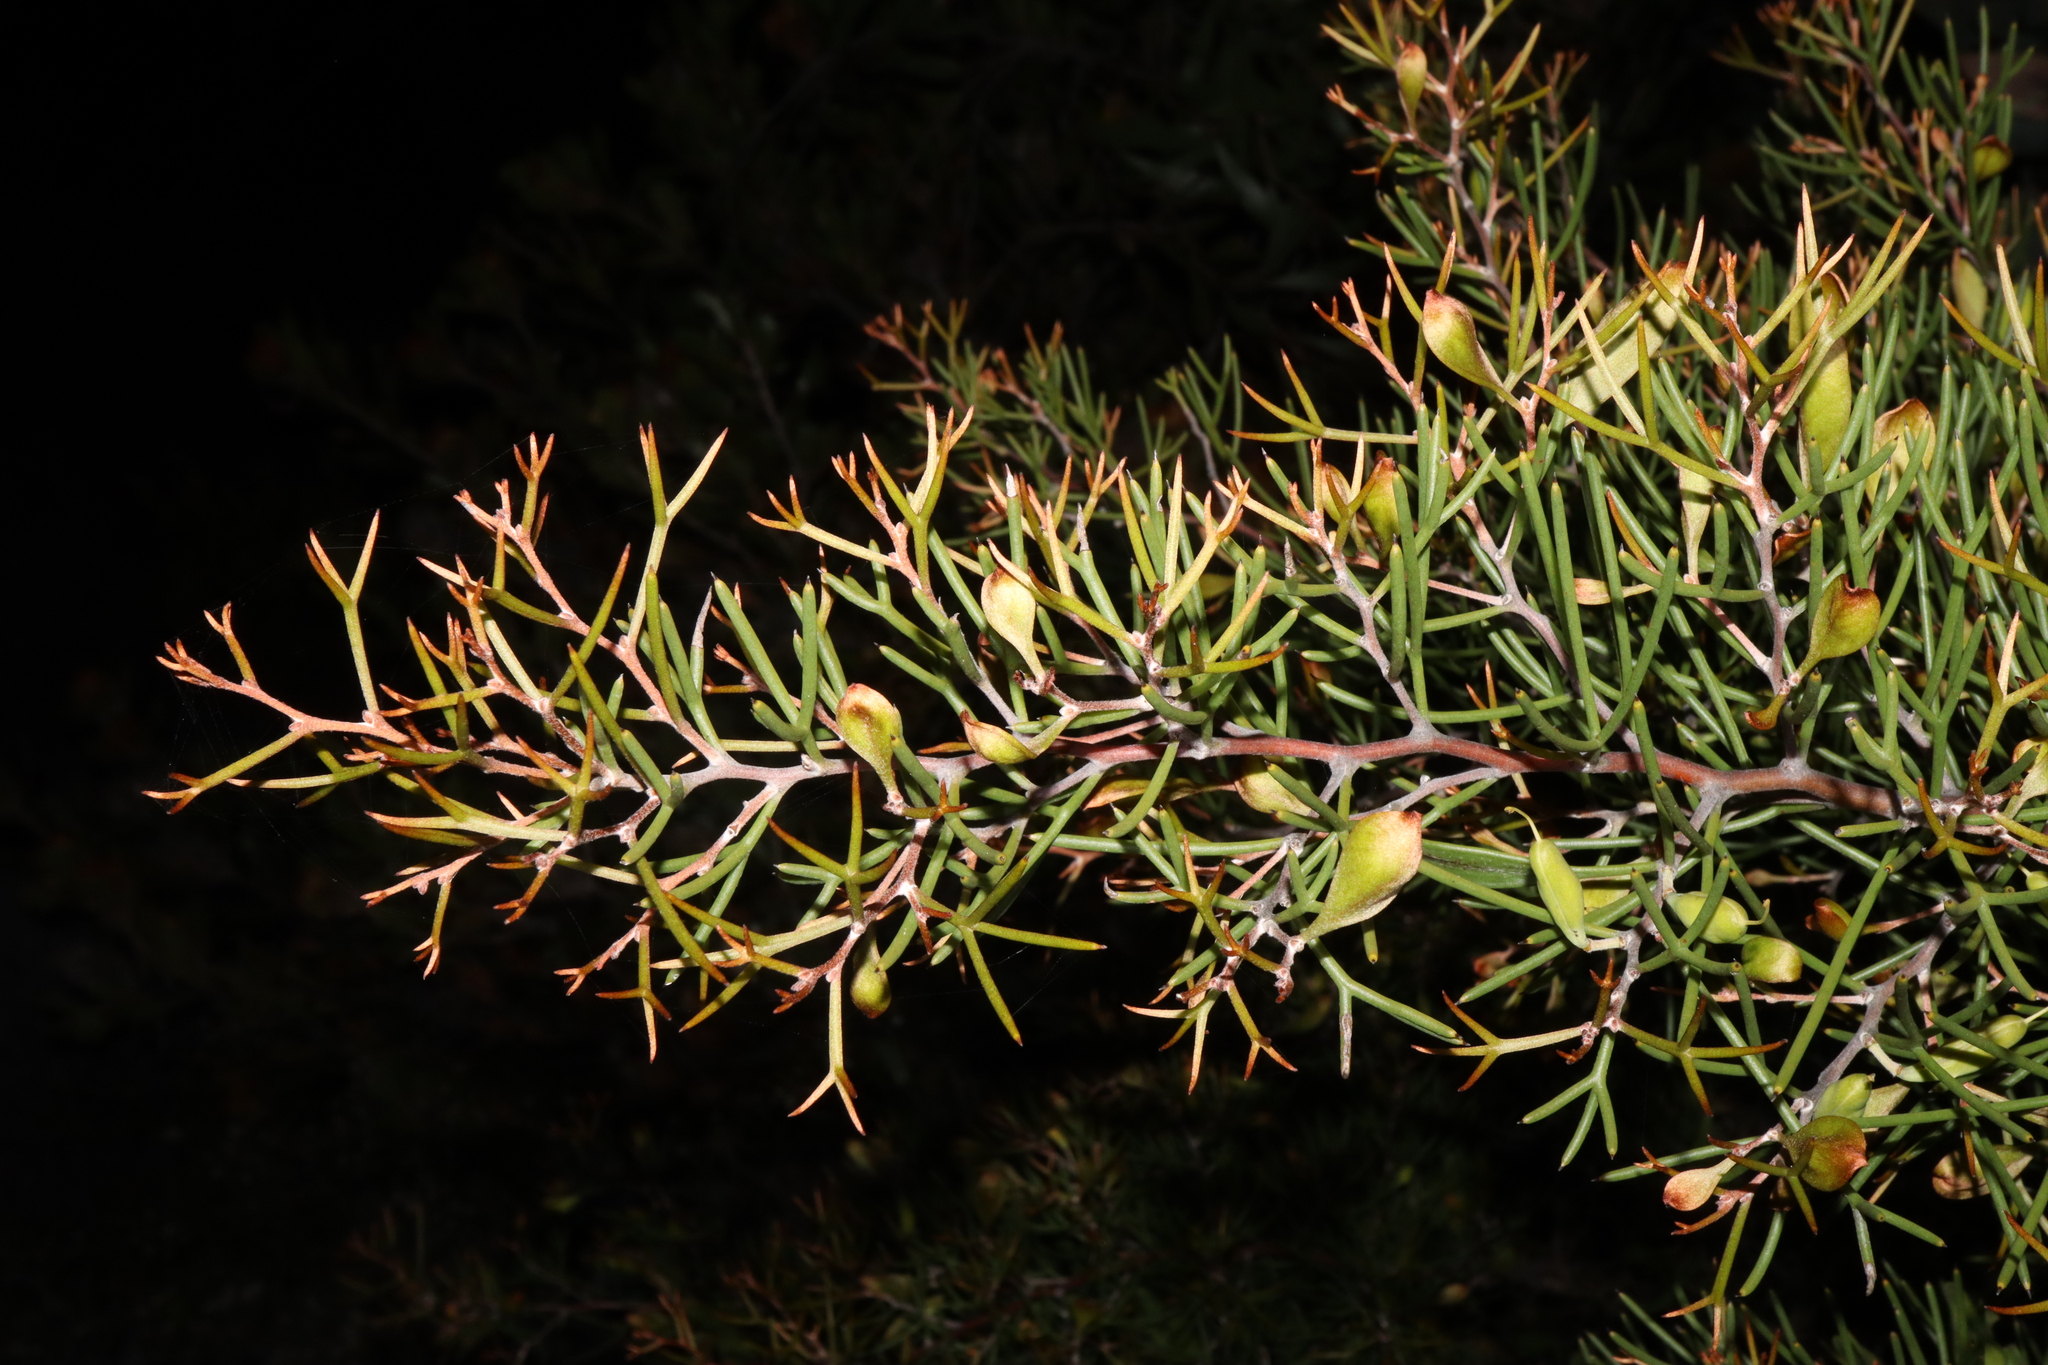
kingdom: Plantae
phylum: Tracheophyta
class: Magnoliopsida
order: Proteales
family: Proteaceae
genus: Hakea
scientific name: Hakea trifurcata
